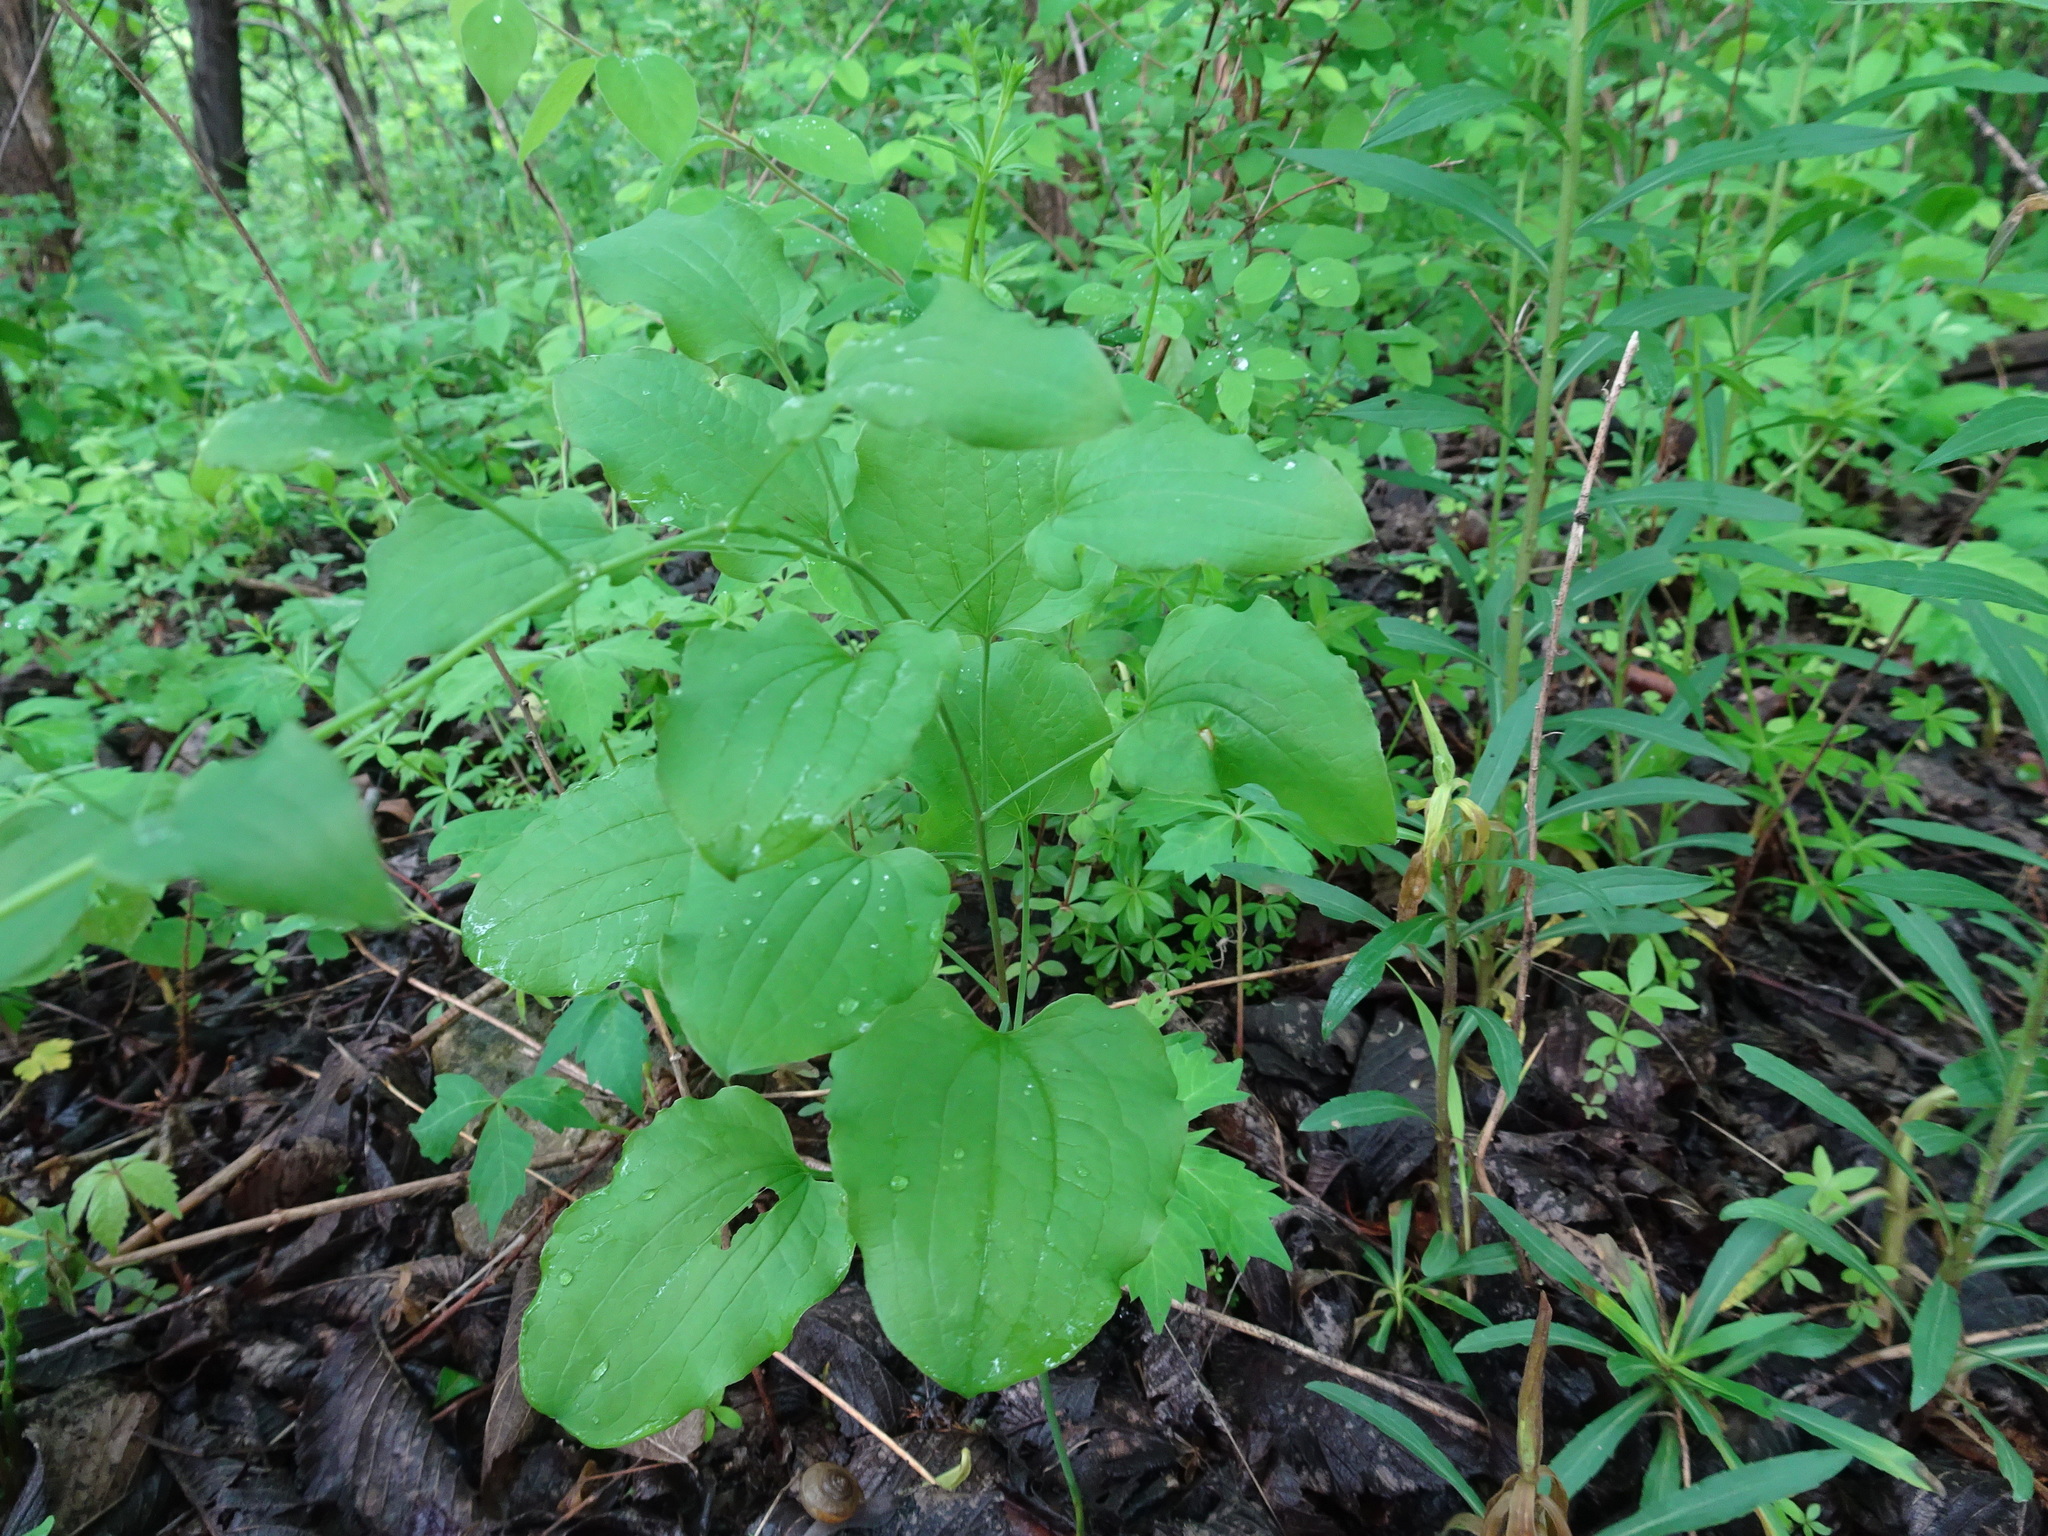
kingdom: Plantae
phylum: Tracheophyta
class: Liliopsida
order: Liliales
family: Smilacaceae
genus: Smilax
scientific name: Smilax lasioneura
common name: Blue ridge carrionflower
